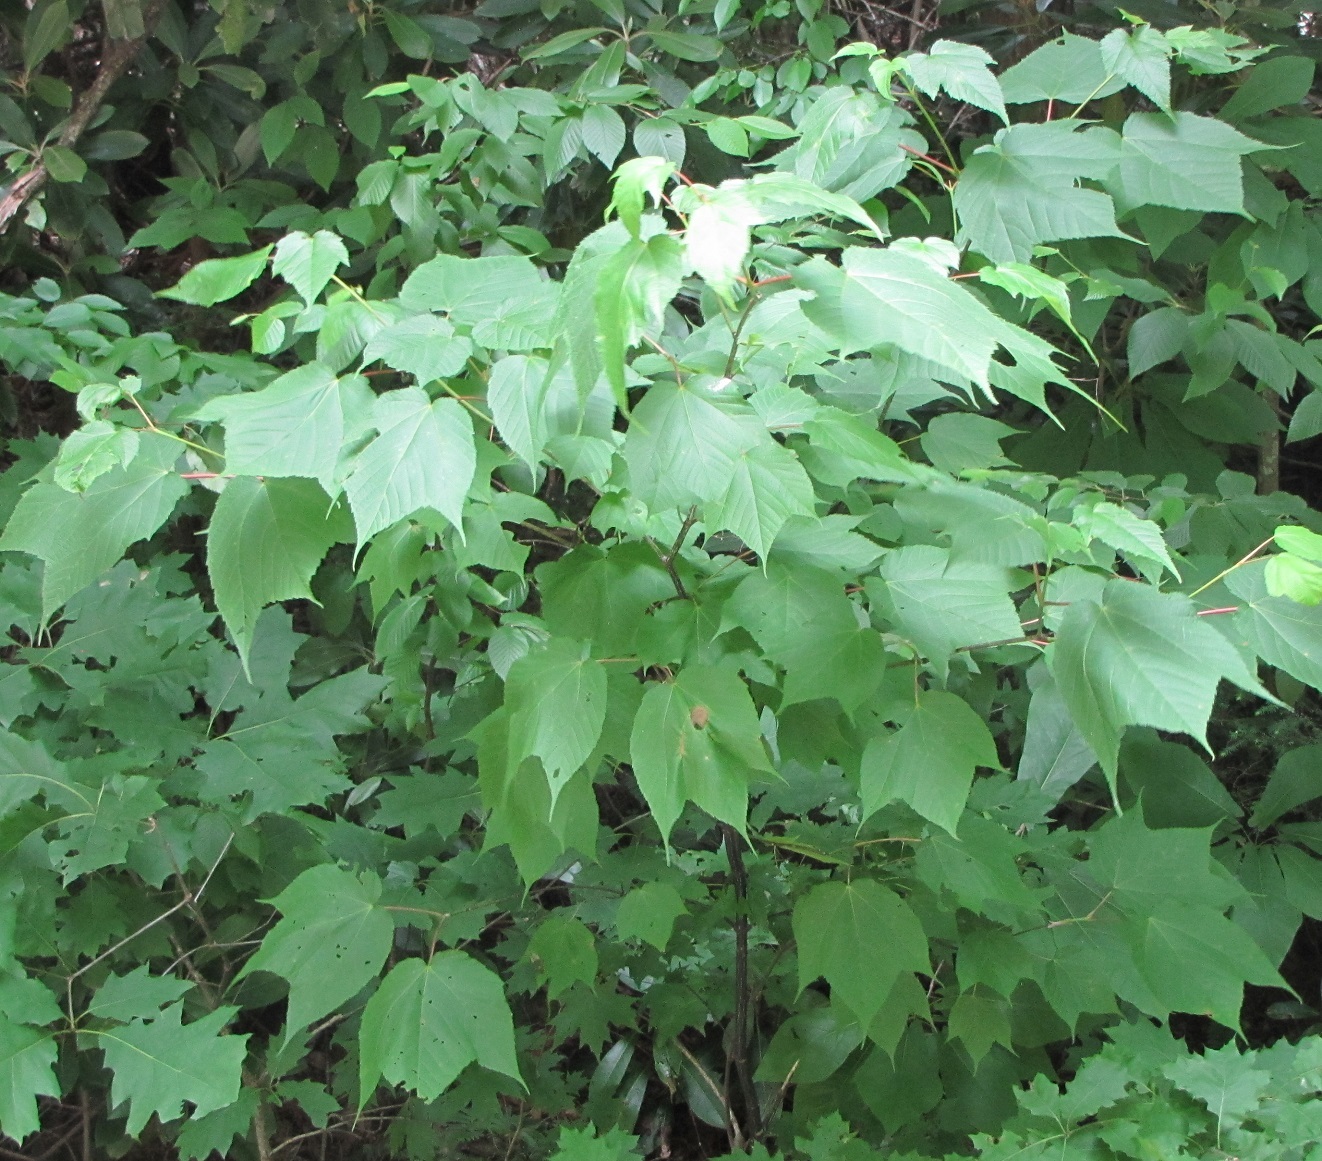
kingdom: Plantae
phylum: Tracheophyta
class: Magnoliopsida
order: Sapindales
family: Sapindaceae
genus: Acer
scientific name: Acer pensylvanicum
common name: Moosewood
